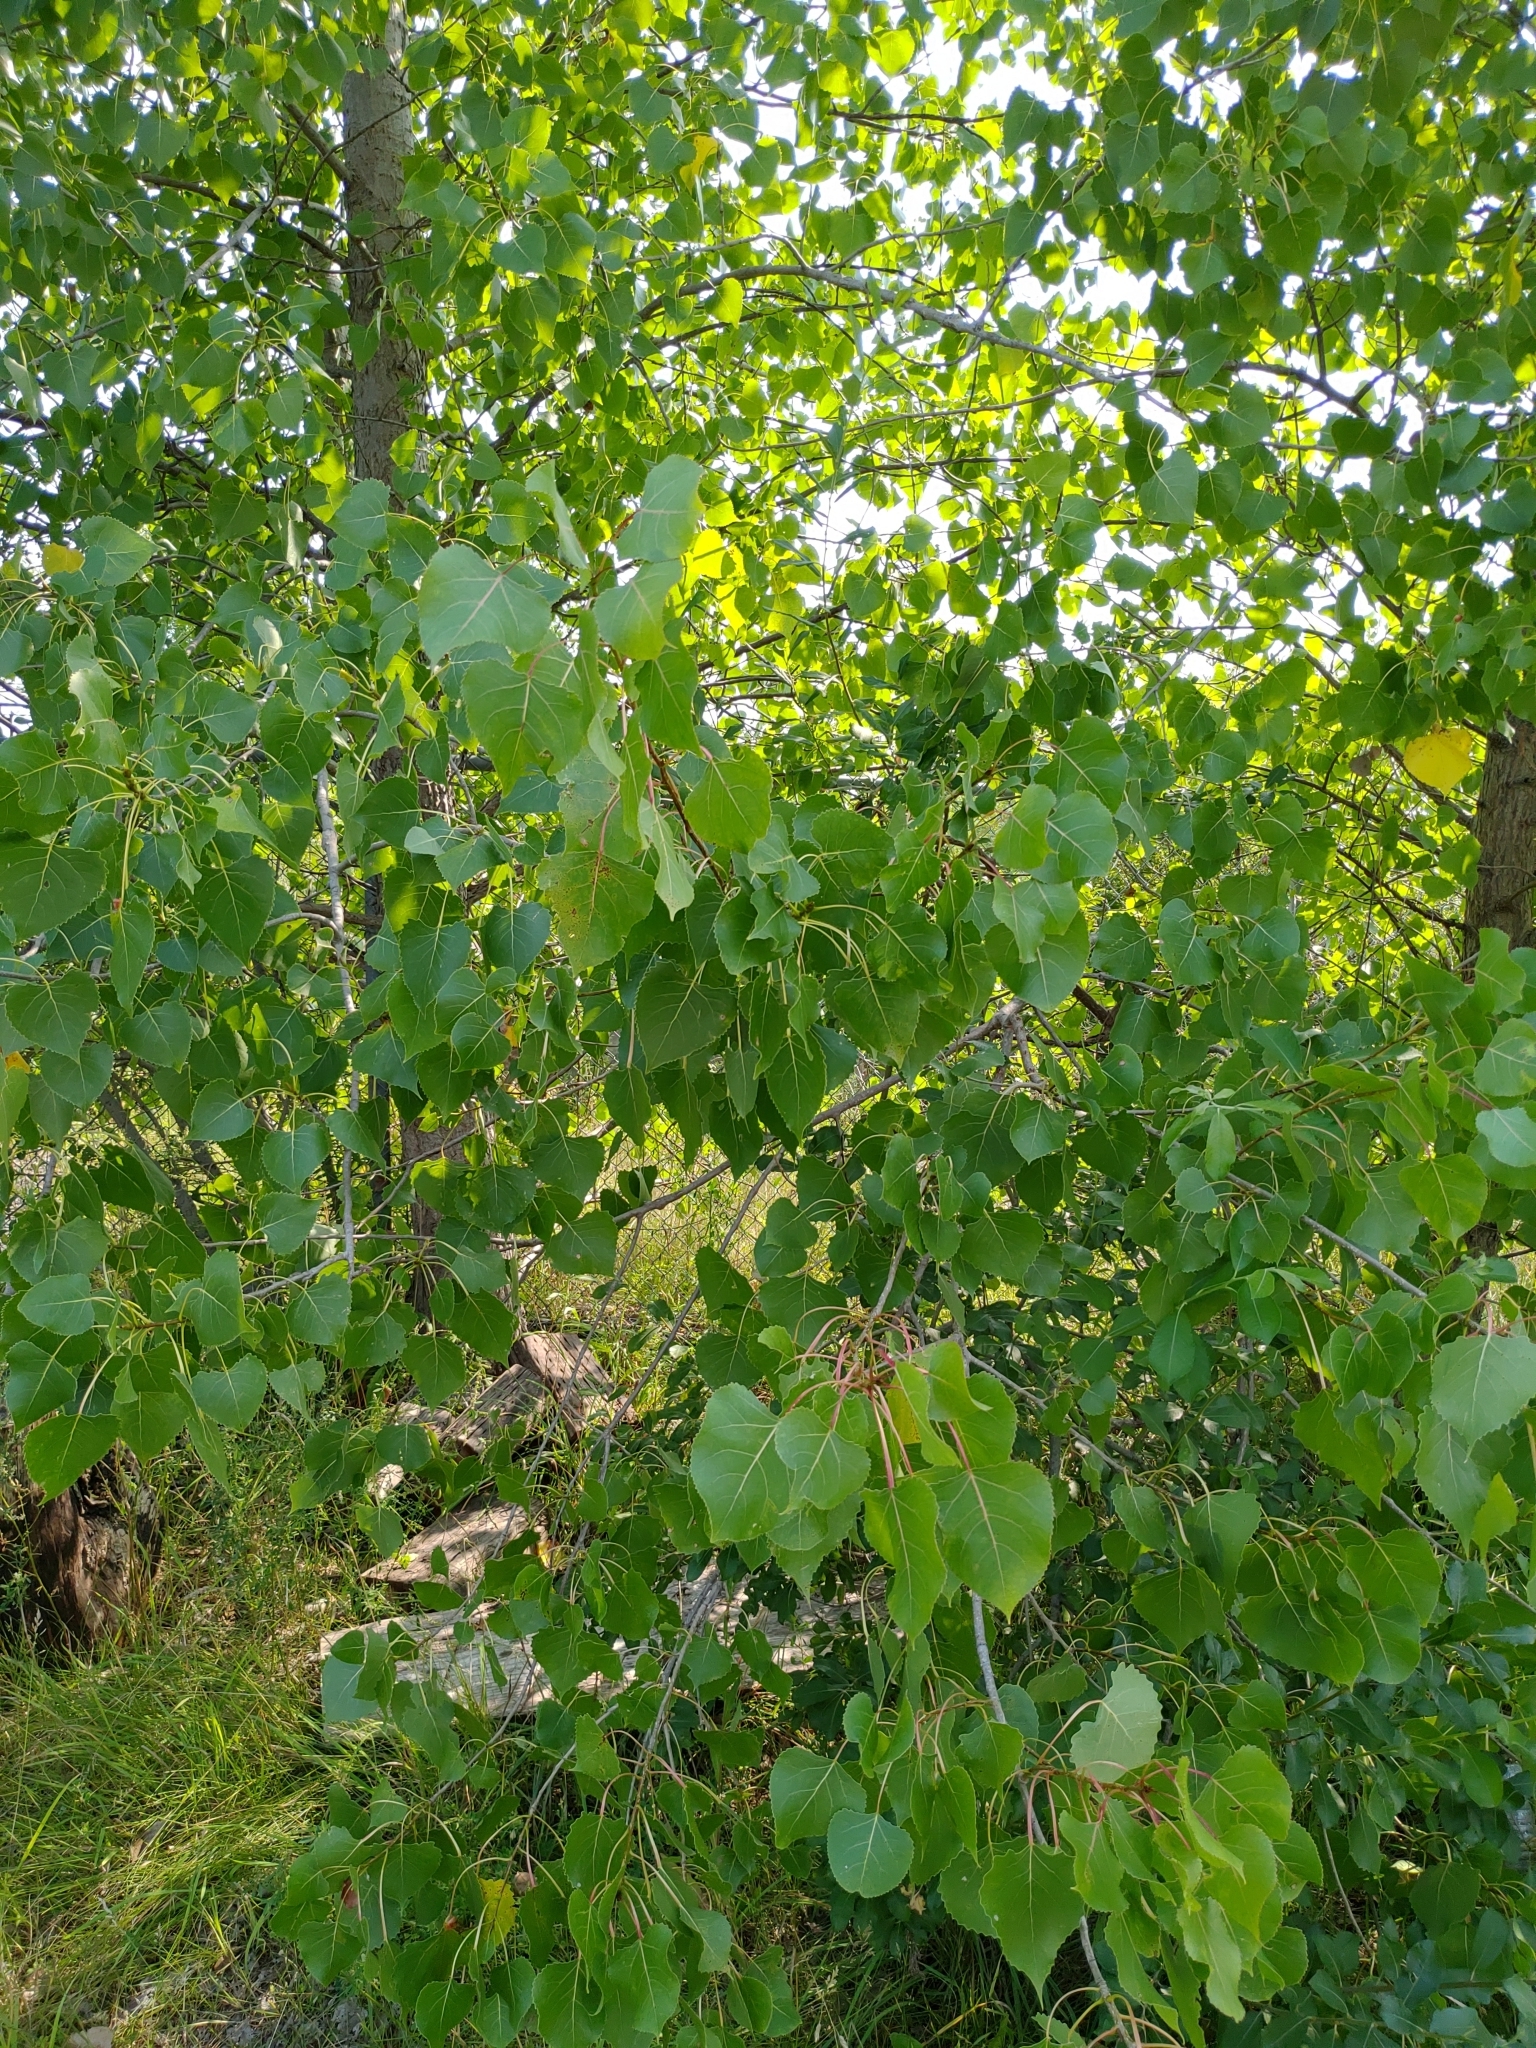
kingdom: Plantae
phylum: Tracheophyta
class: Magnoliopsida
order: Malpighiales
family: Salicaceae
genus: Populus
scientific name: Populus deltoides
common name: Eastern cottonwood
